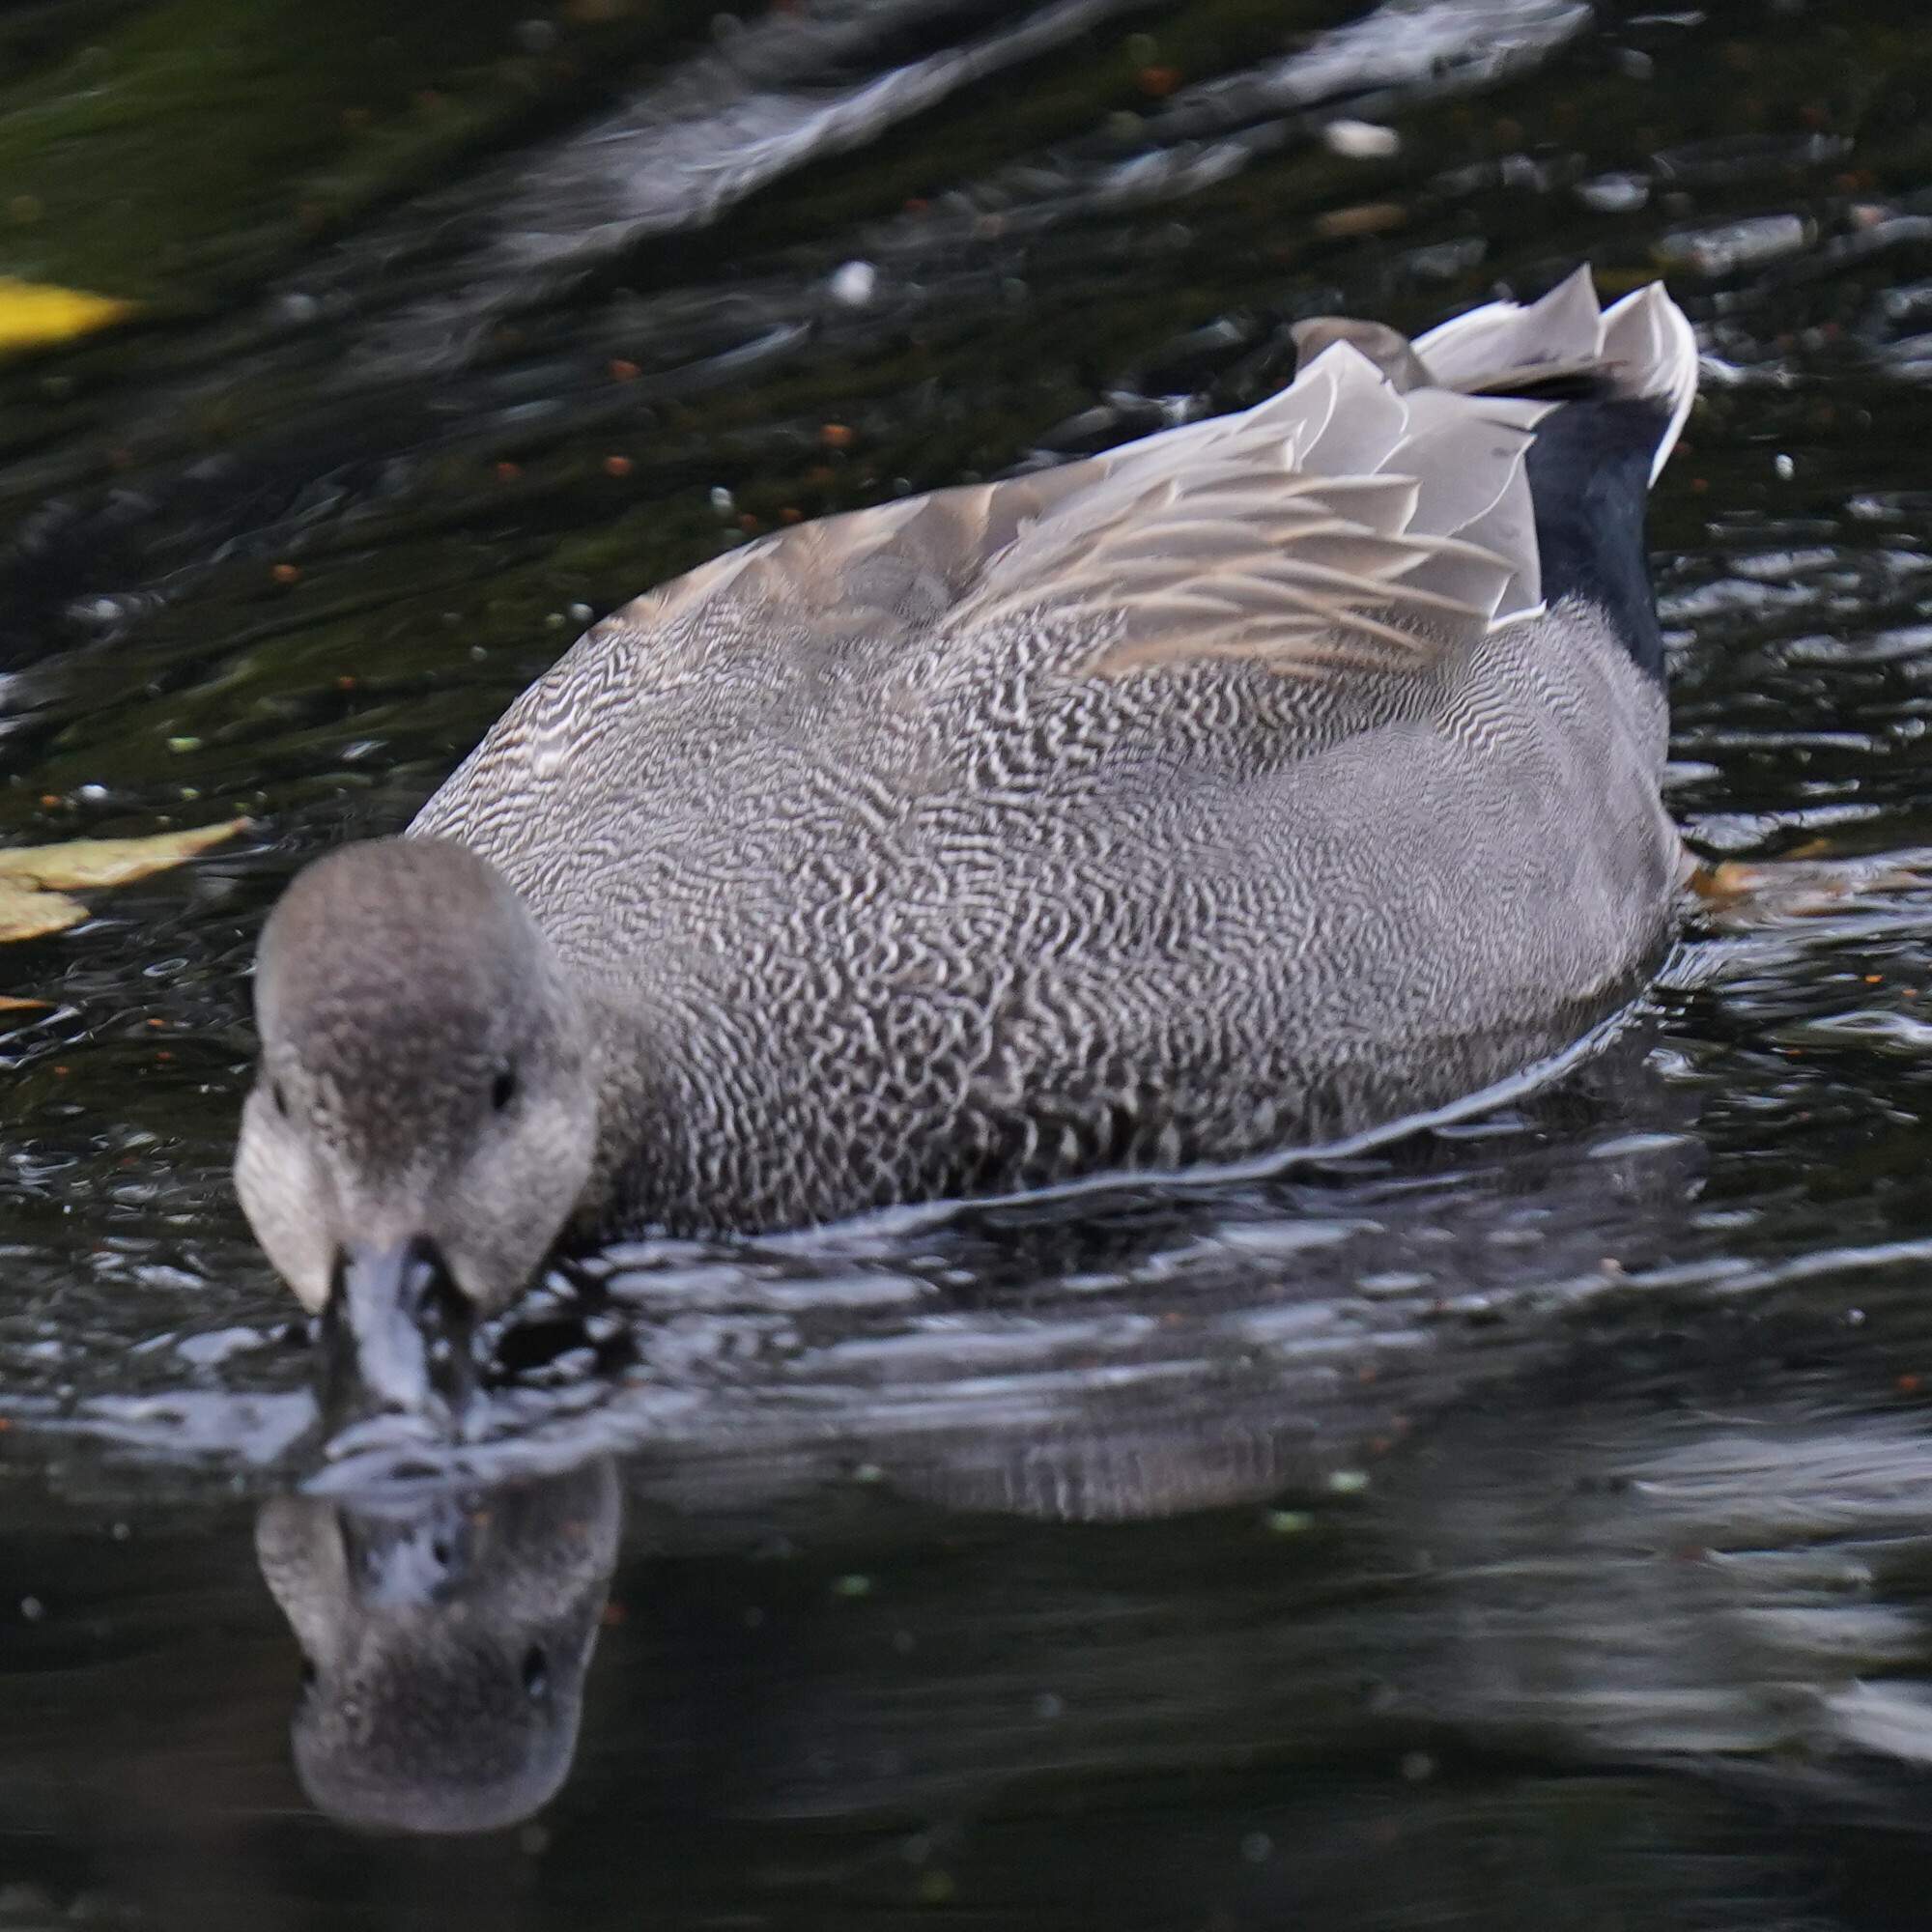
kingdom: Animalia
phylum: Chordata
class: Aves
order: Anseriformes
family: Anatidae
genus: Mareca
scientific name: Mareca strepera
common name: Gadwall
